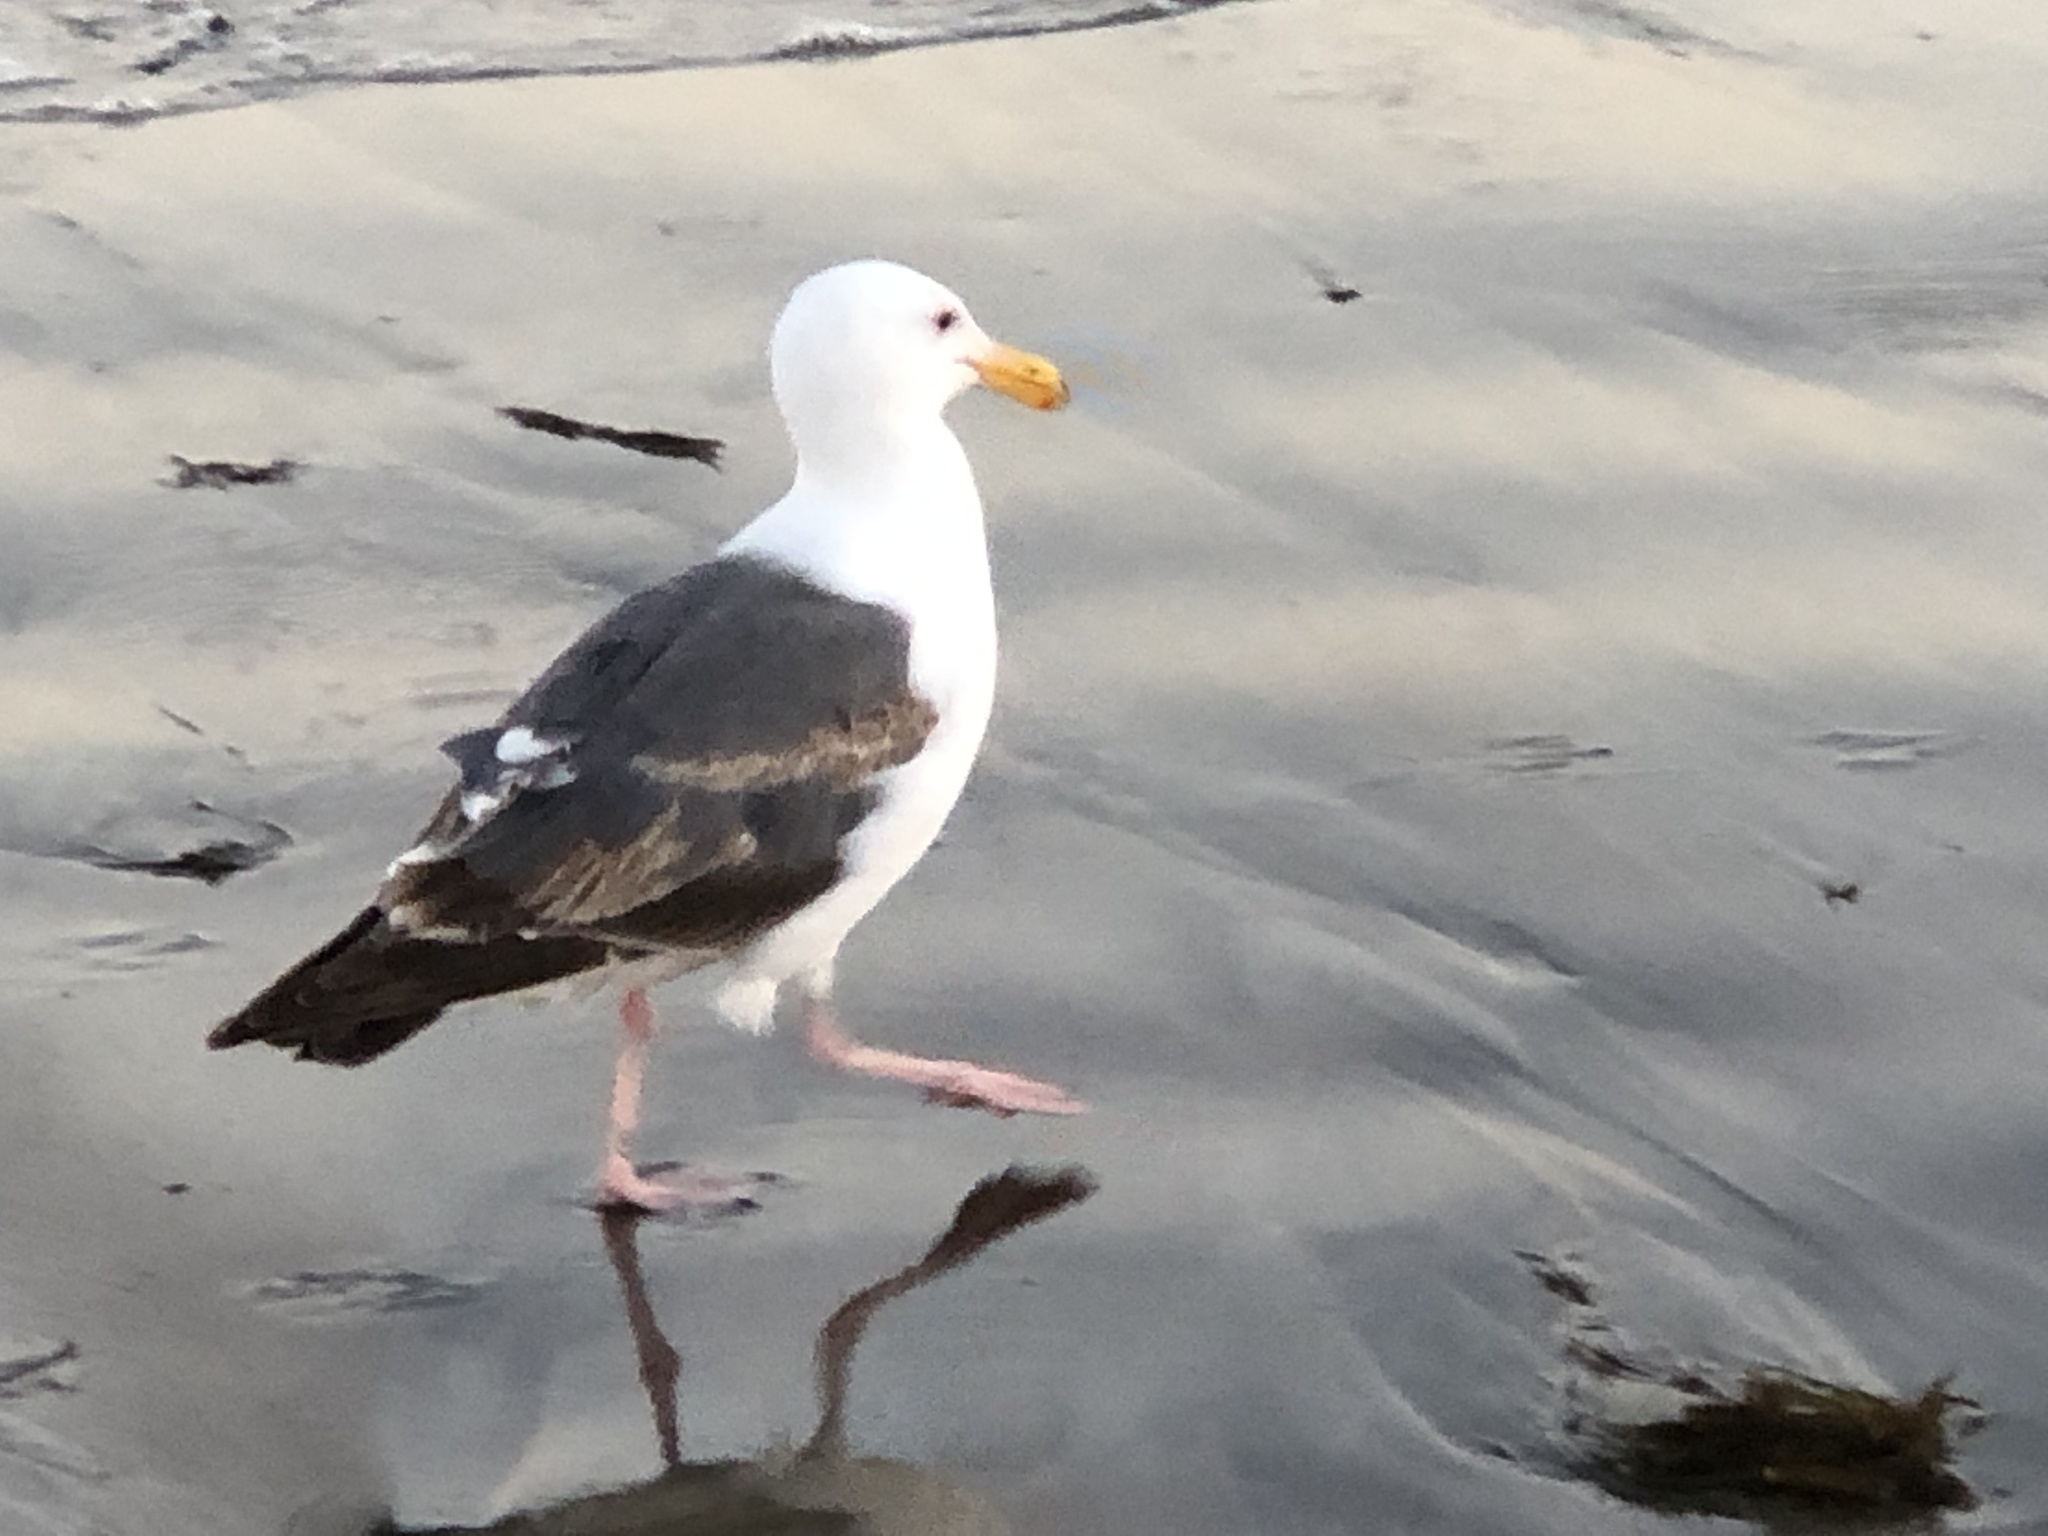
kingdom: Animalia
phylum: Chordata
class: Aves
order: Charadriiformes
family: Laridae
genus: Larus
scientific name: Larus occidentalis
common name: Western gull
